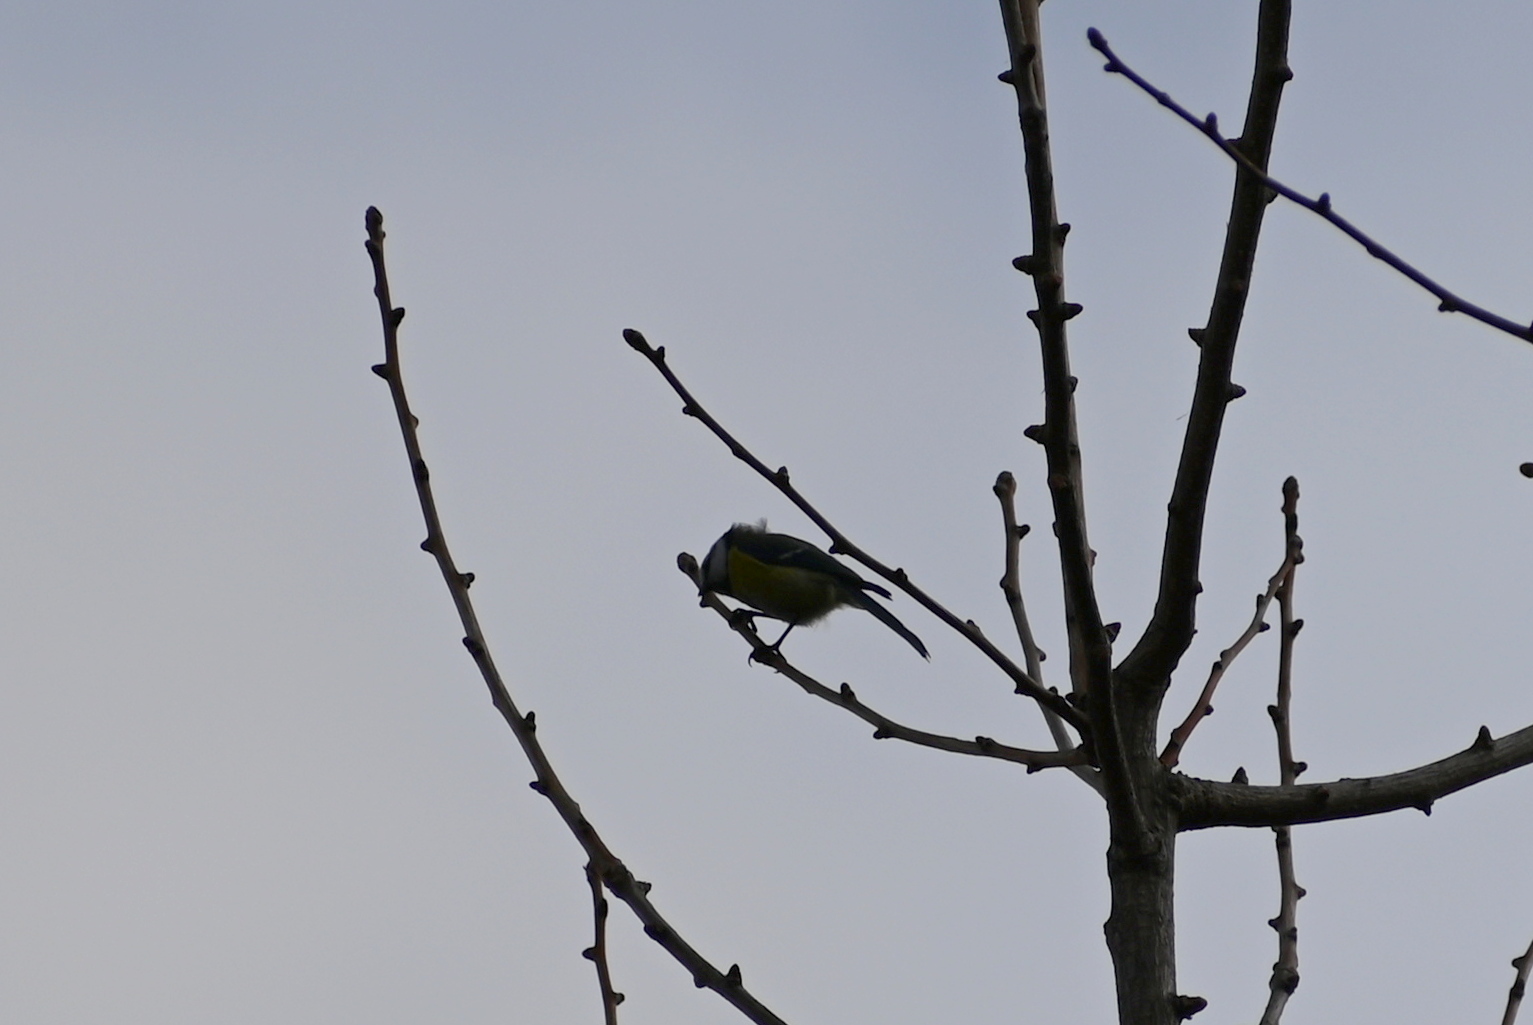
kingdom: Animalia
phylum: Chordata
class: Aves
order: Passeriformes
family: Paridae
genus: Cyanistes
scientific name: Cyanistes caeruleus
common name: Eurasian blue tit
